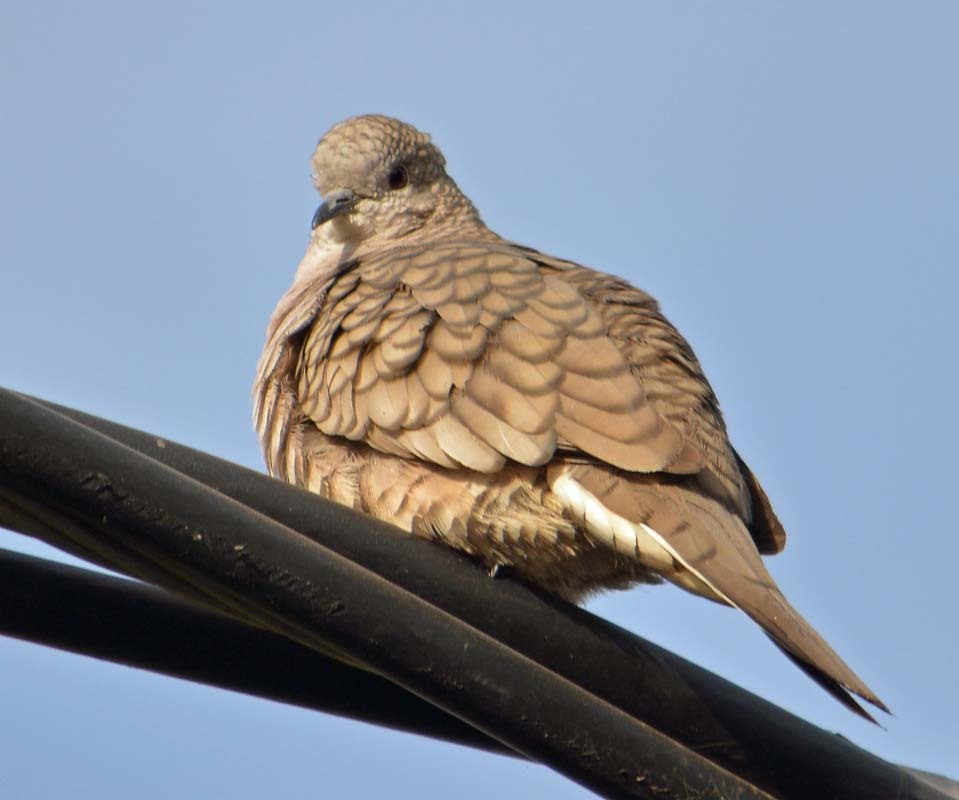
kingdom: Animalia
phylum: Chordata
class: Aves
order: Columbiformes
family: Columbidae
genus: Columbina
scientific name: Columbina inca
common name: Inca dove
